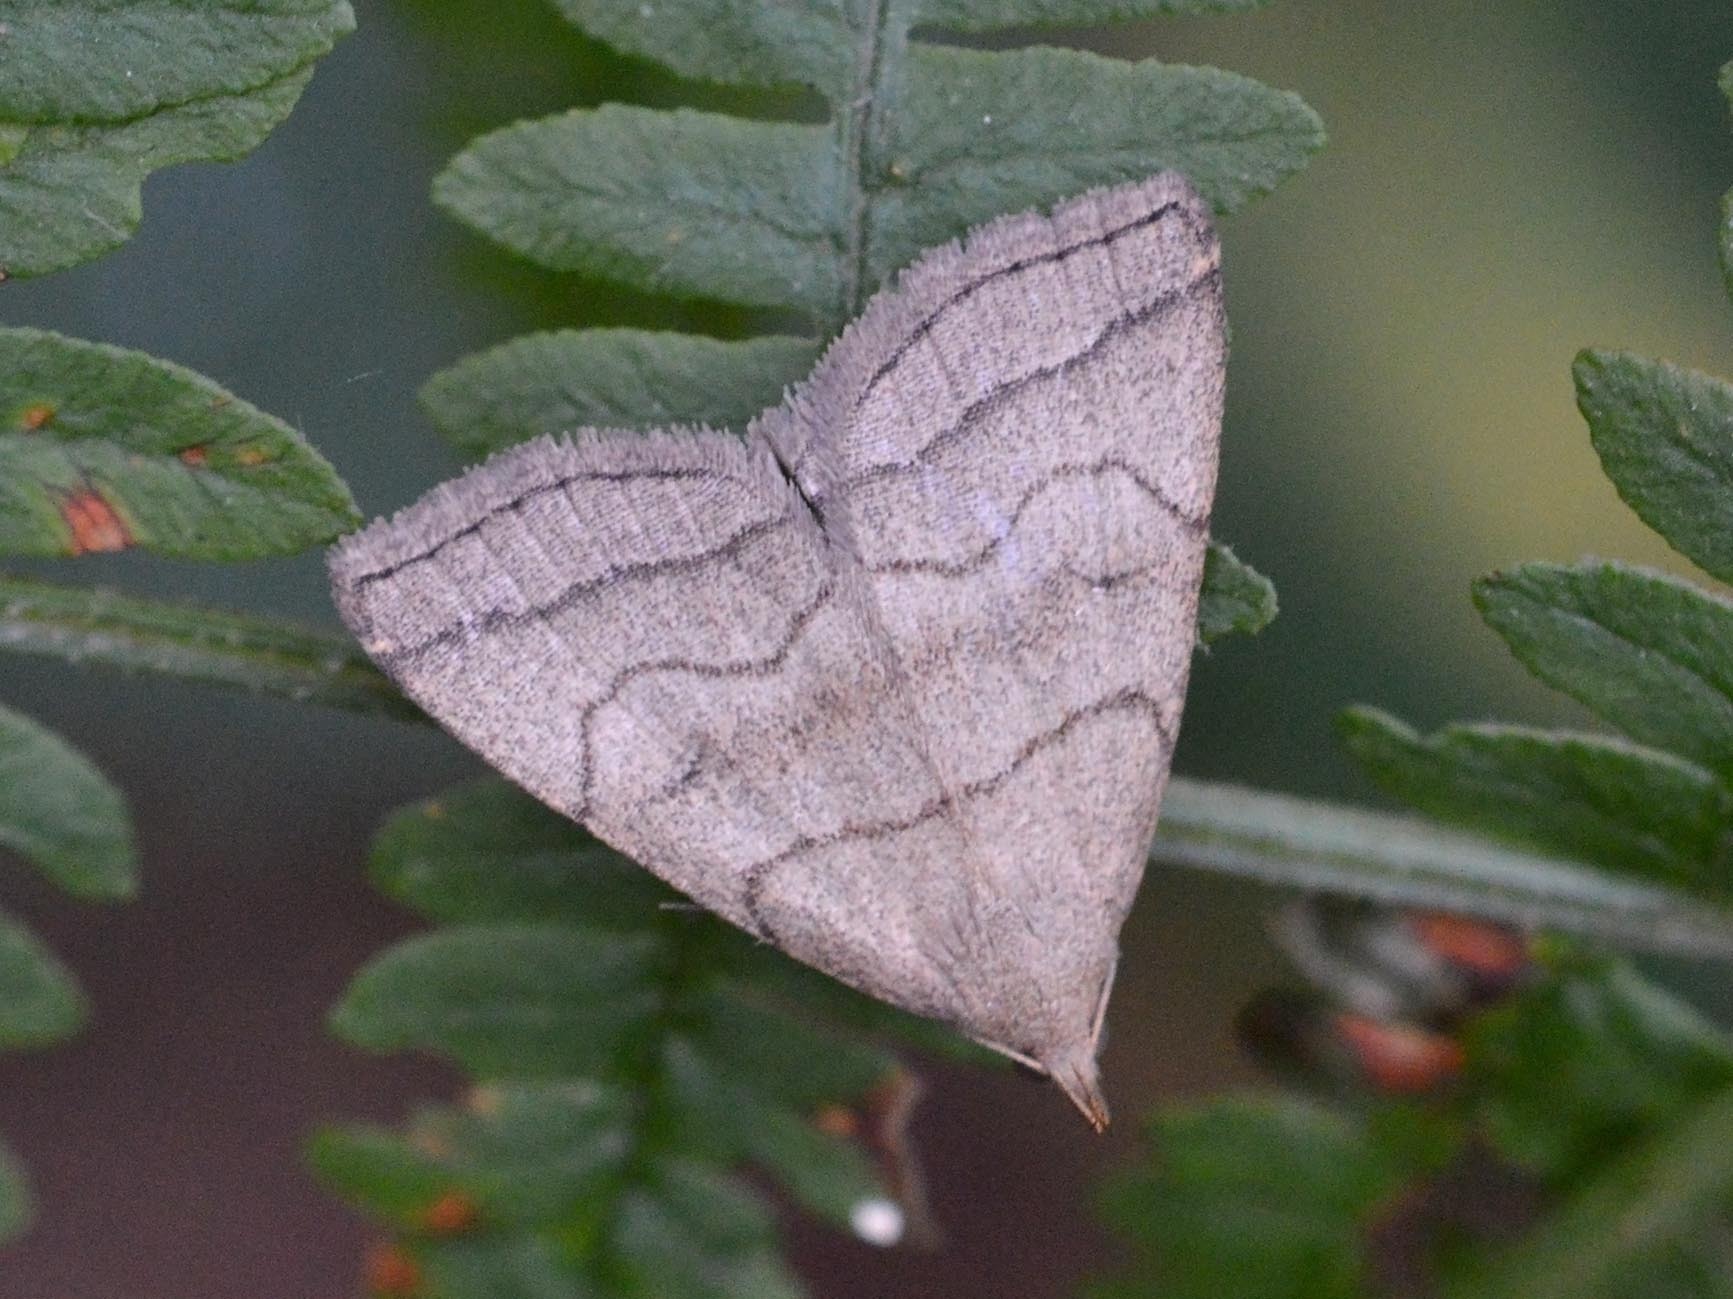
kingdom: Animalia
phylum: Arthropoda
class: Insecta
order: Lepidoptera
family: Erebidae
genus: Herminia
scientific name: Herminia tarsicrinalis
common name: Shaded fan-foot
